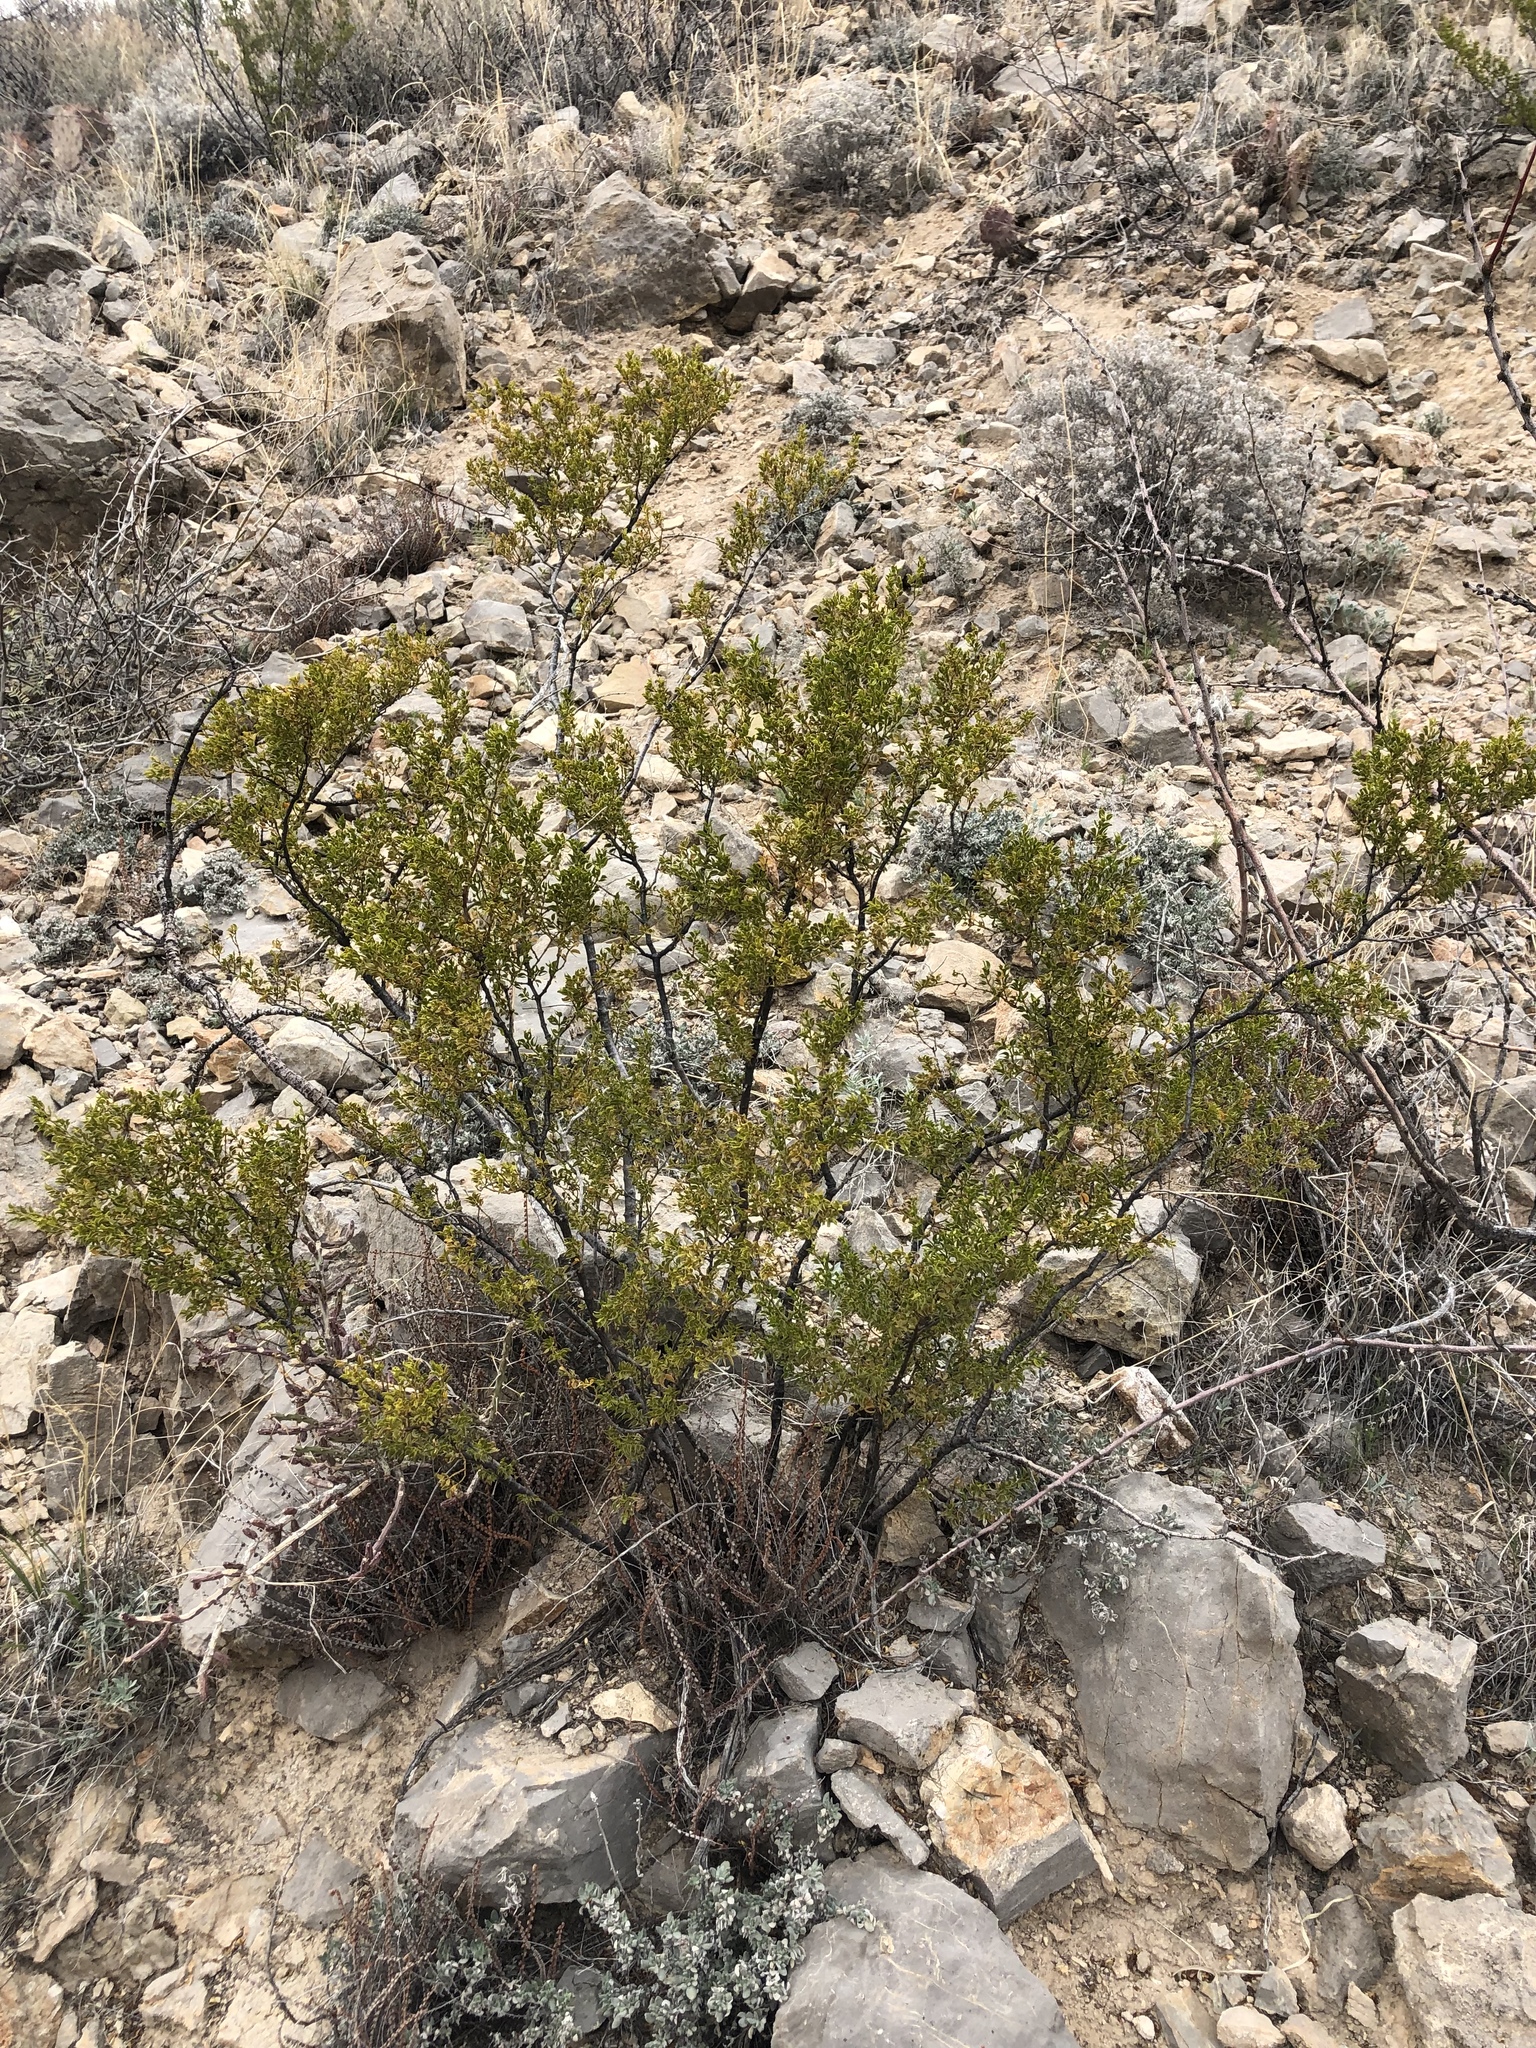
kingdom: Plantae
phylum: Tracheophyta
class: Magnoliopsida
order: Zygophyllales
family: Zygophyllaceae
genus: Larrea
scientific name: Larrea tridentata
